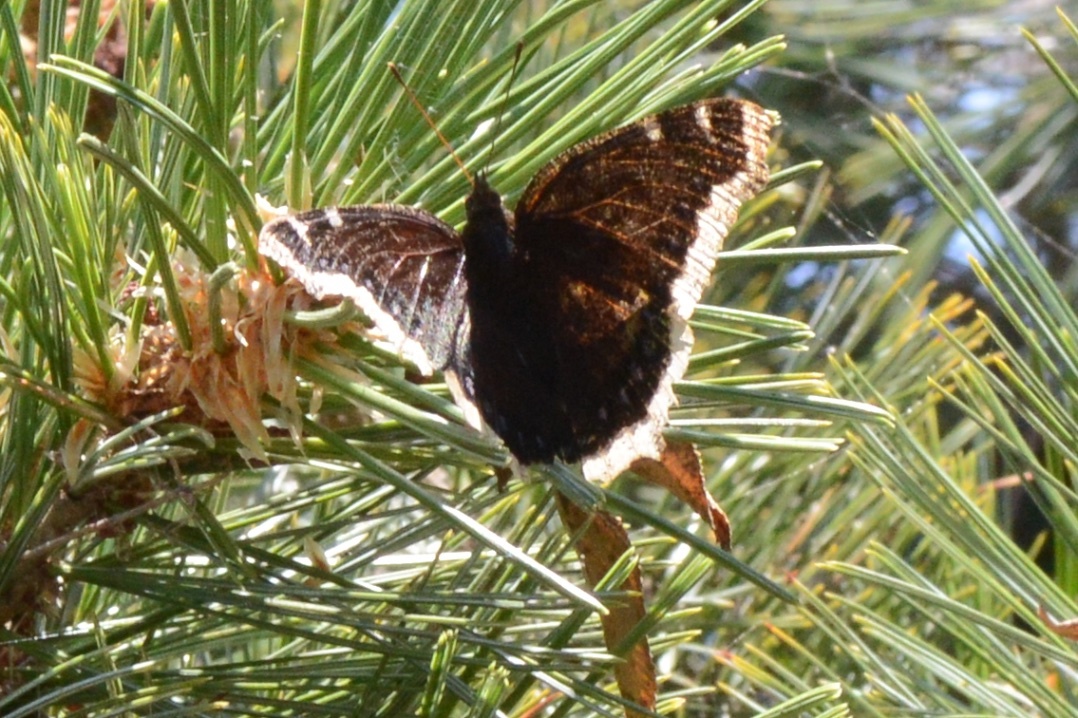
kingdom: Animalia
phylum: Arthropoda
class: Insecta
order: Lepidoptera
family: Nymphalidae
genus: Nymphalis
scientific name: Nymphalis antiopa
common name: Camberwell beauty
